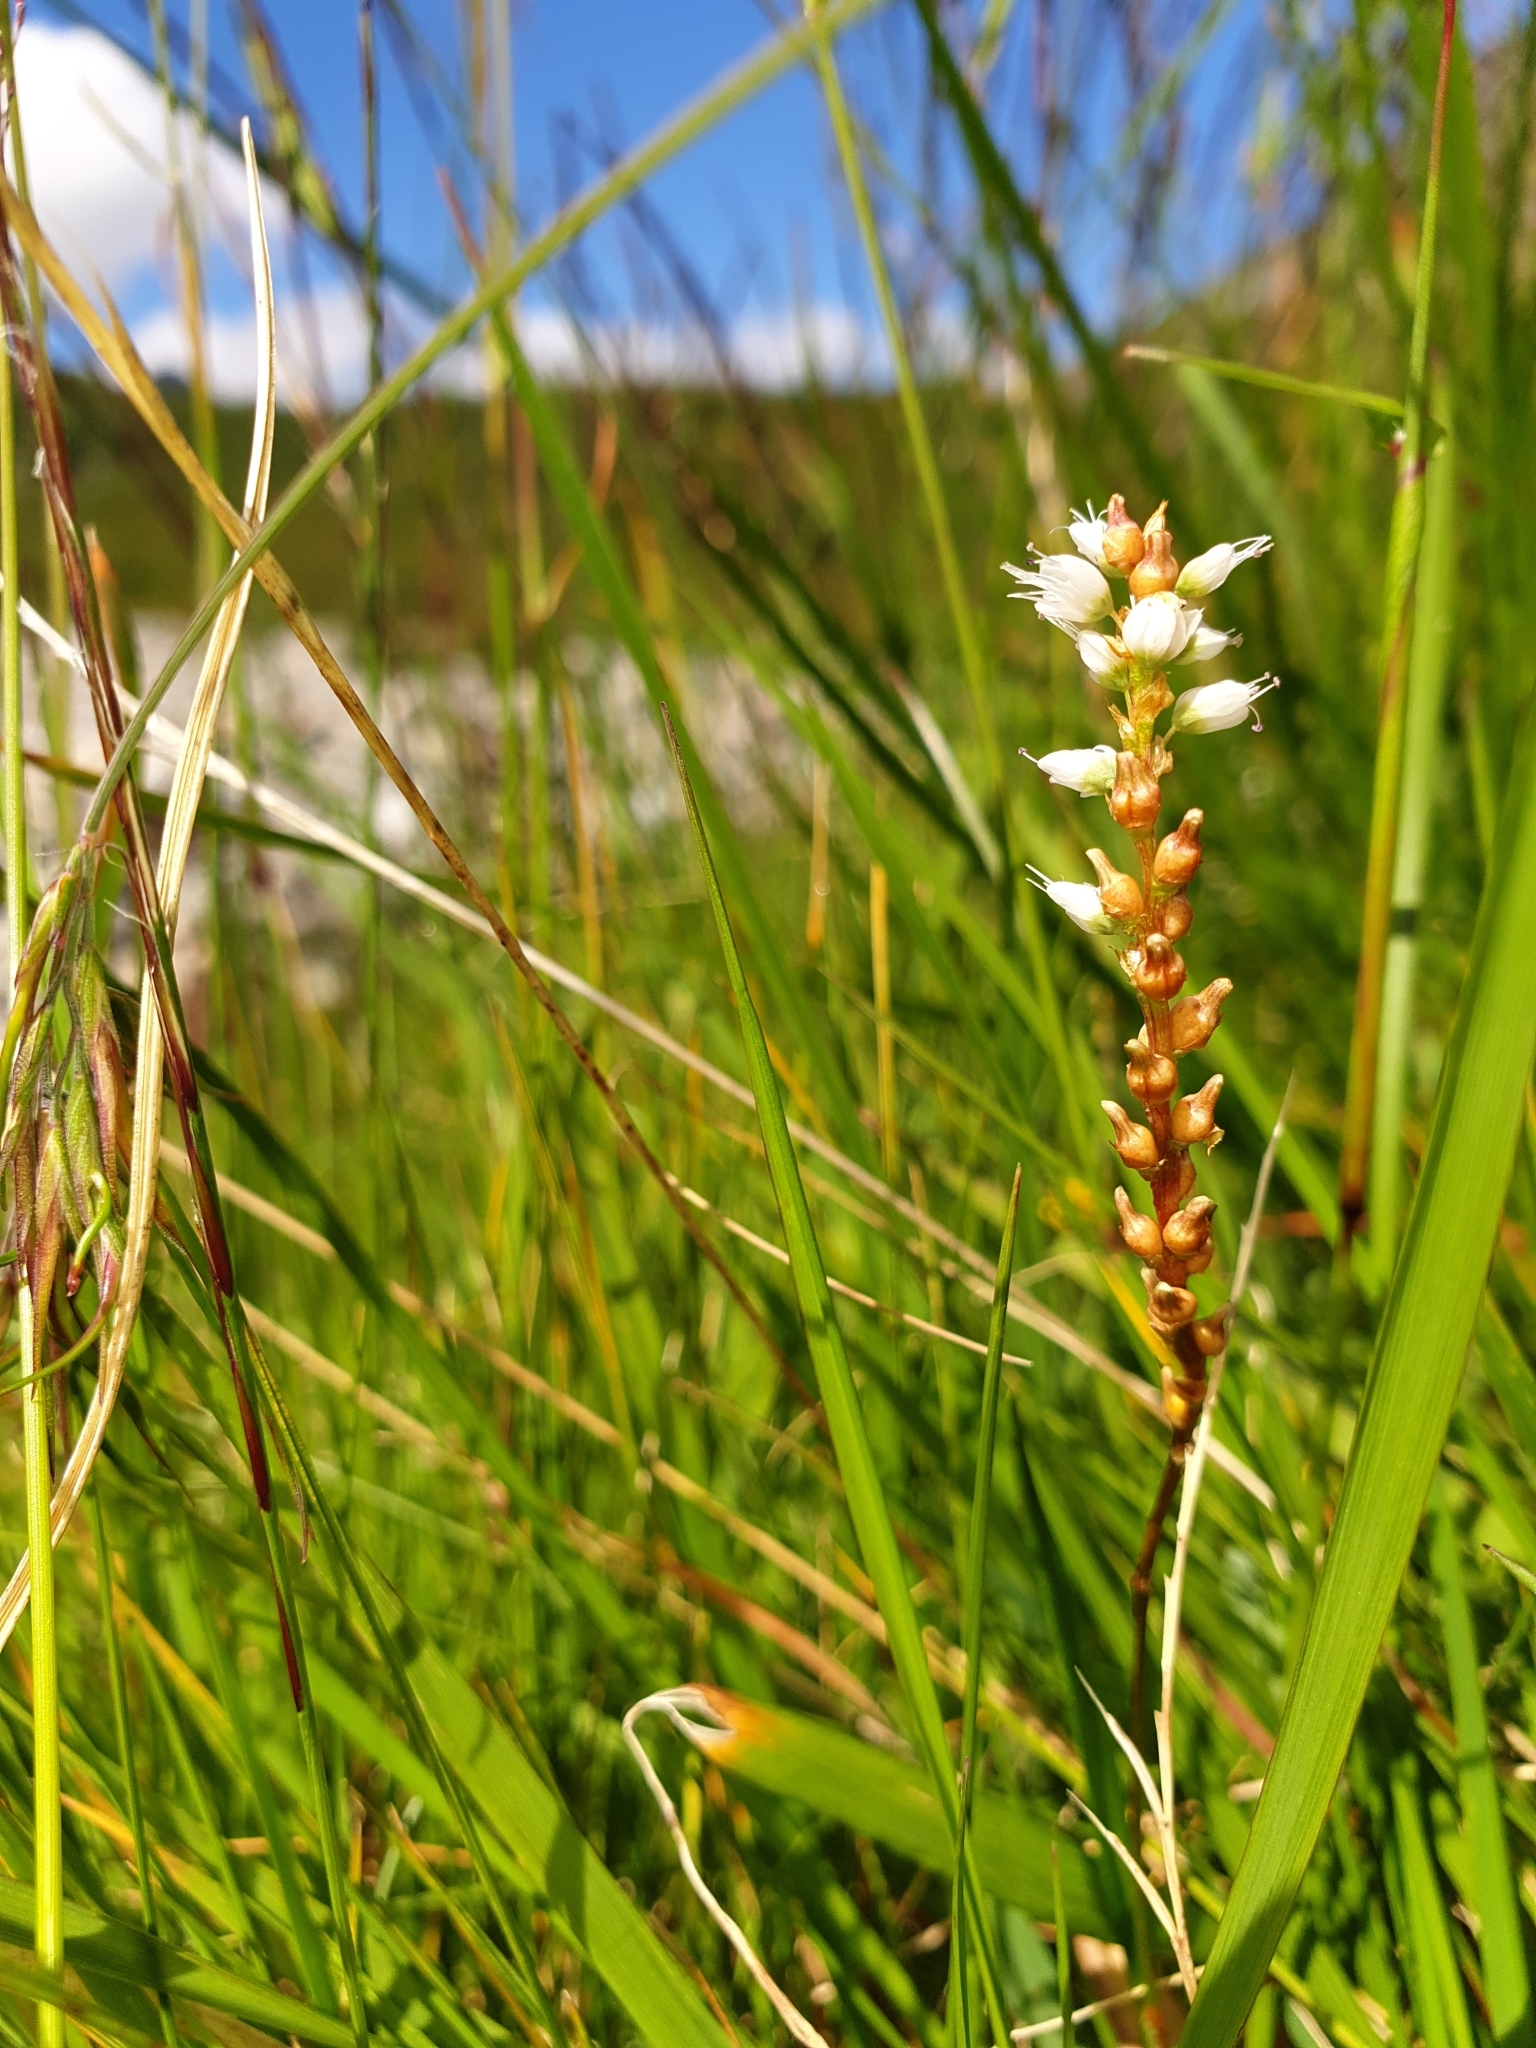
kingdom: Plantae
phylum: Tracheophyta
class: Magnoliopsida
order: Caryophyllales
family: Polygonaceae
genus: Bistorta
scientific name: Bistorta vivipara
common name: Alpine bistort
